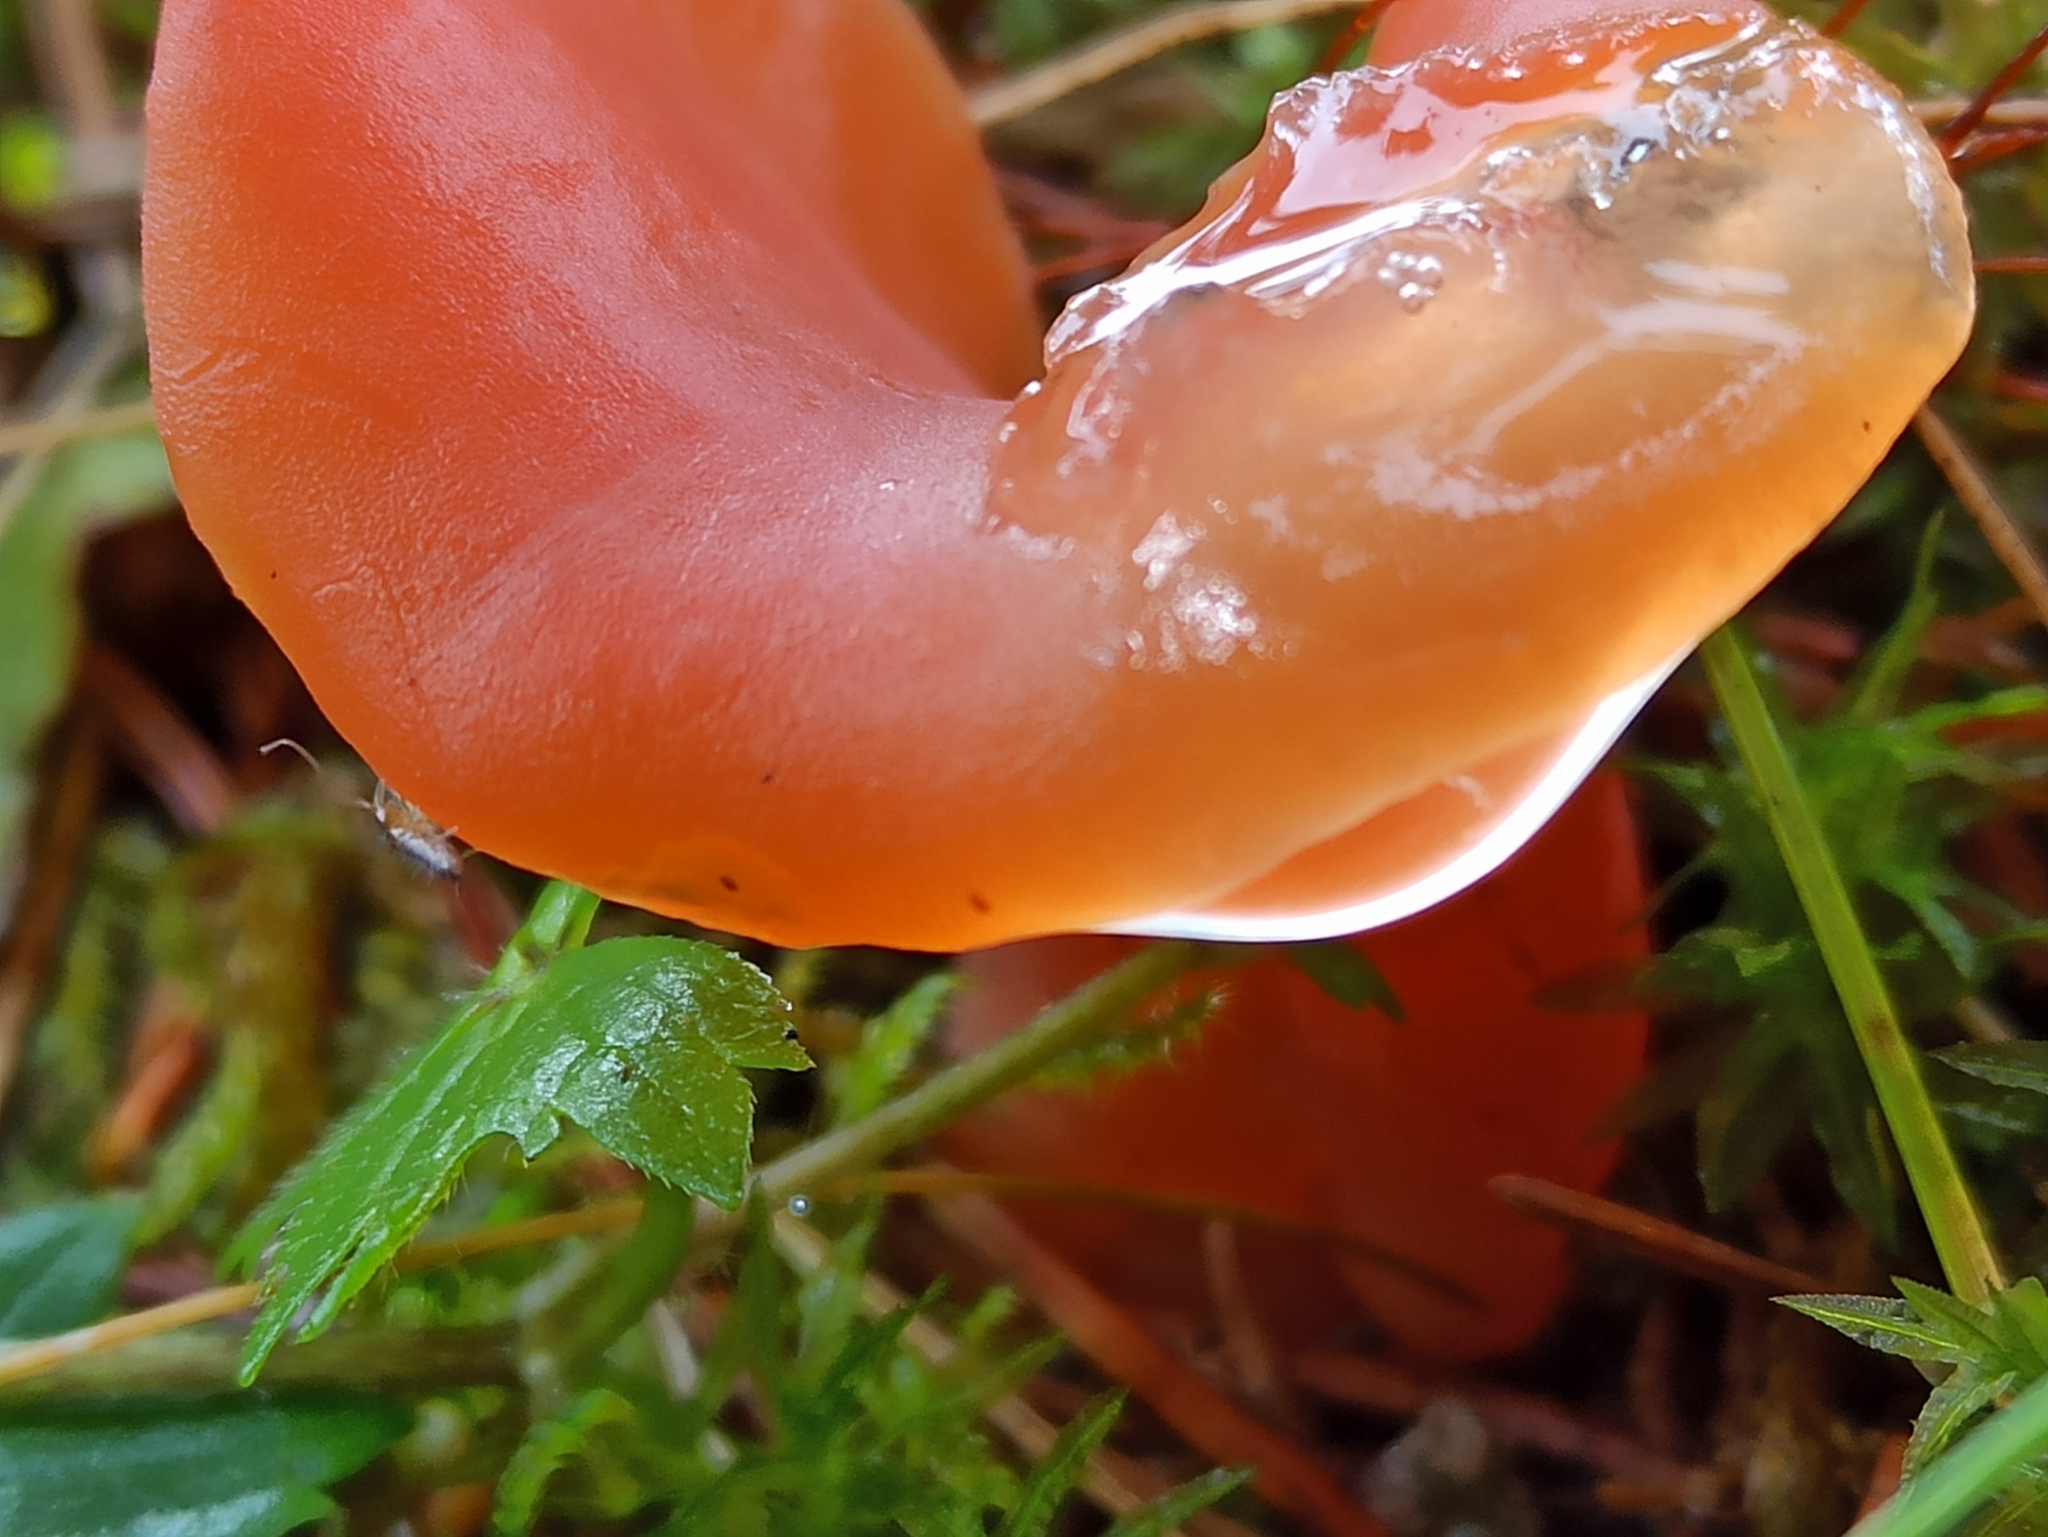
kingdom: Fungi
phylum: Basidiomycota
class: Agaricomycetes
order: Auriculariales
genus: Guepinia
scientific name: Guepinia helvelloides
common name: Salmon salad
